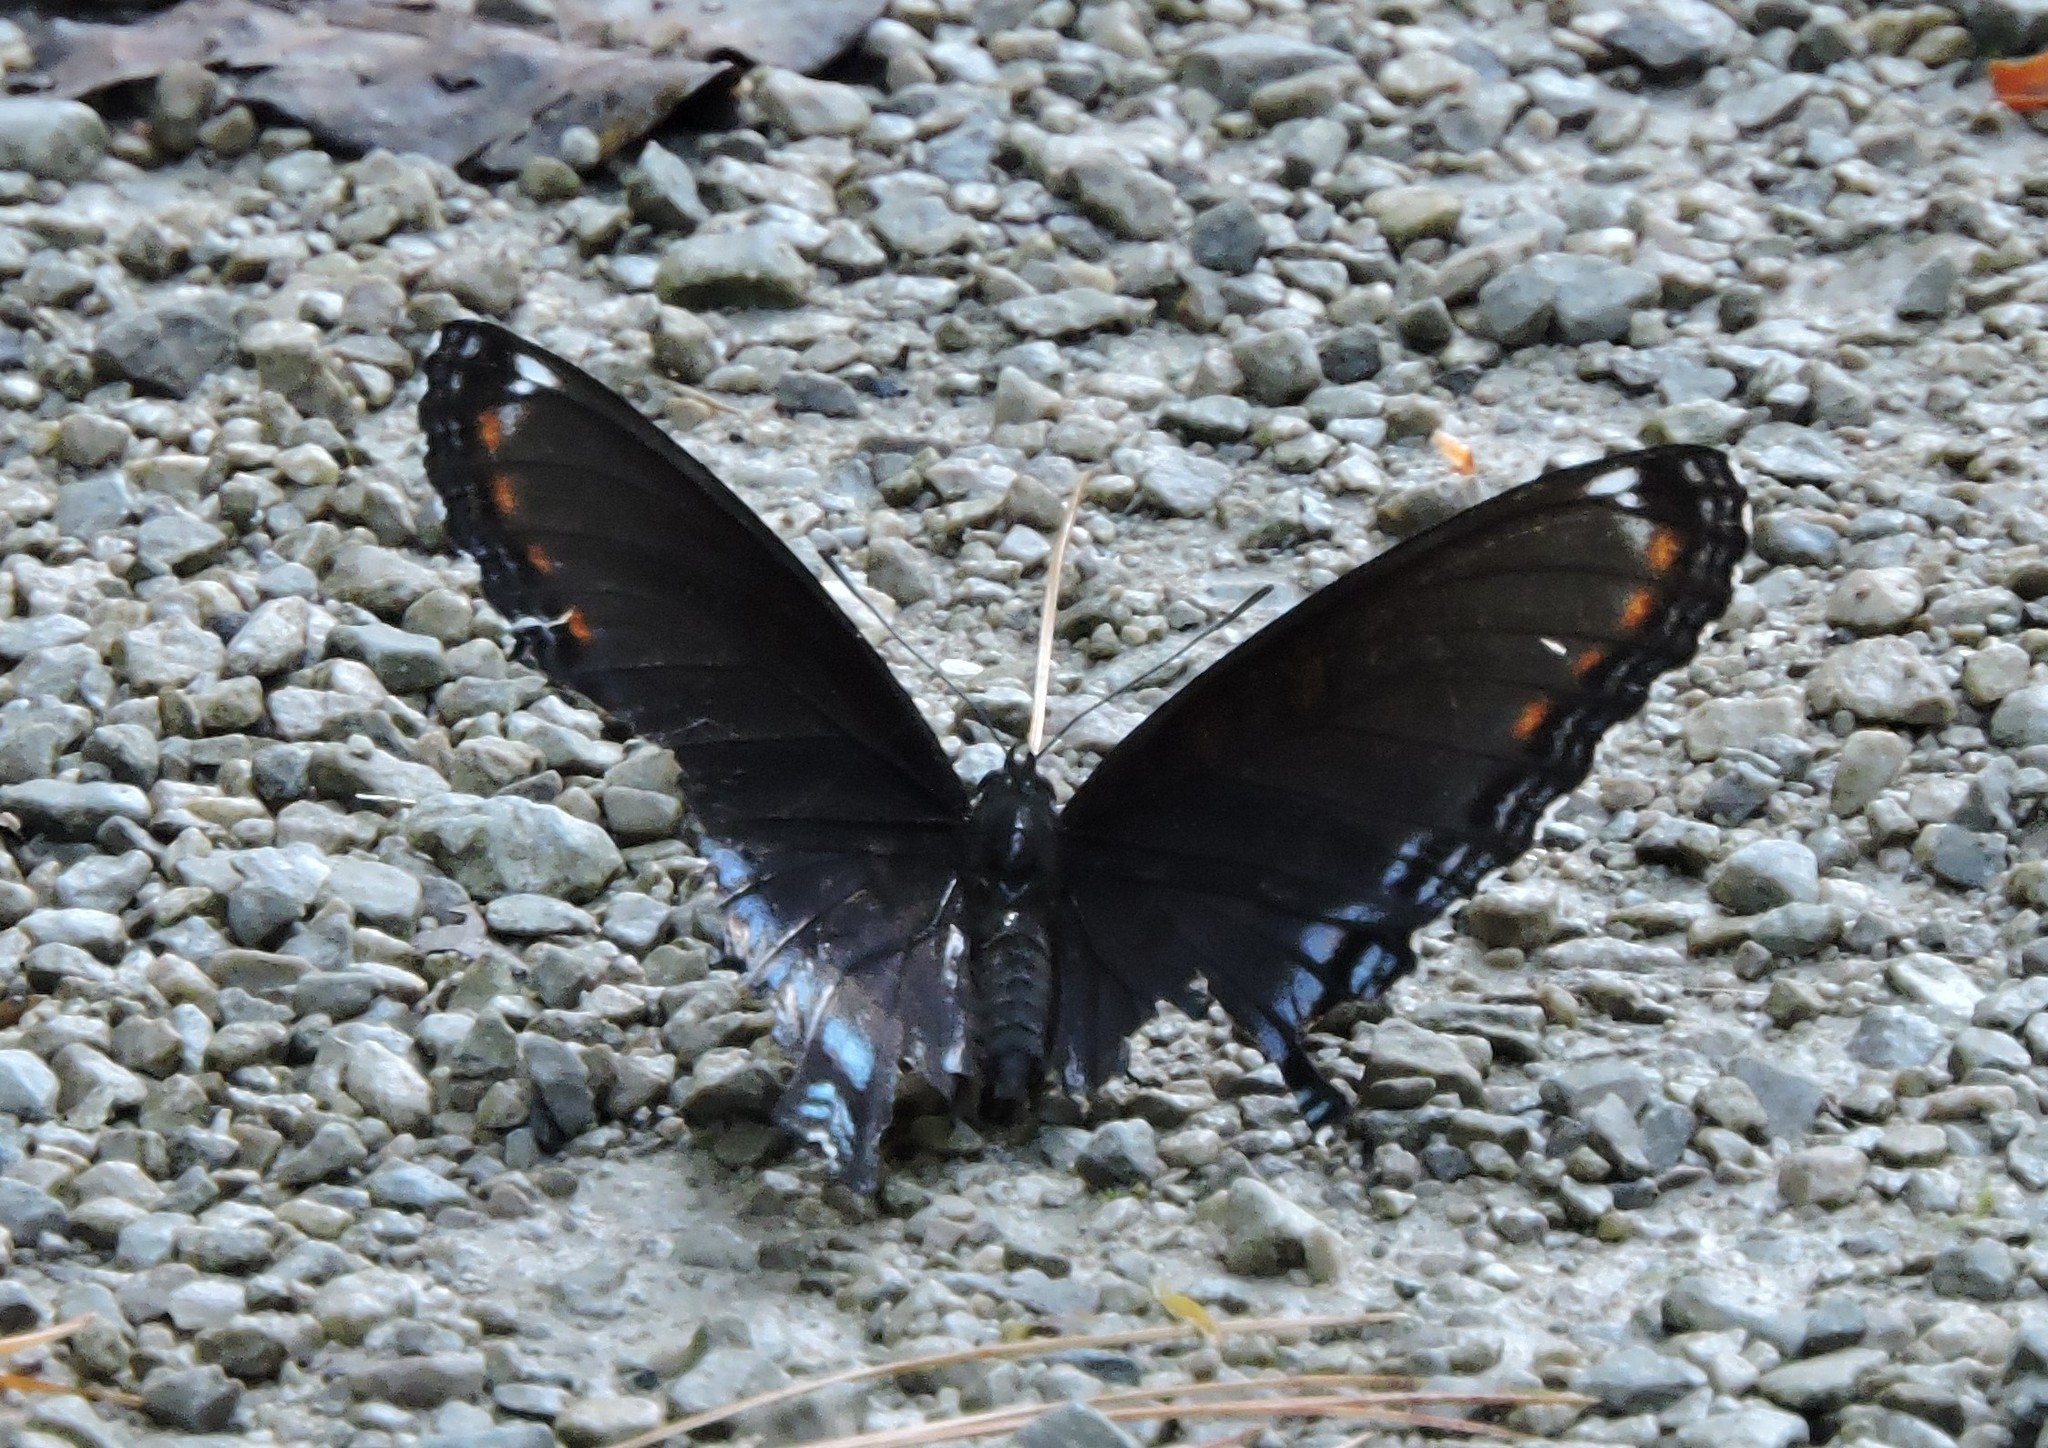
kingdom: Animalia
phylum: Arthropoda
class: Insecta
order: Lepidoptera
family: Nymphalidae
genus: Limenitis
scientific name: Limenitis astyanax
